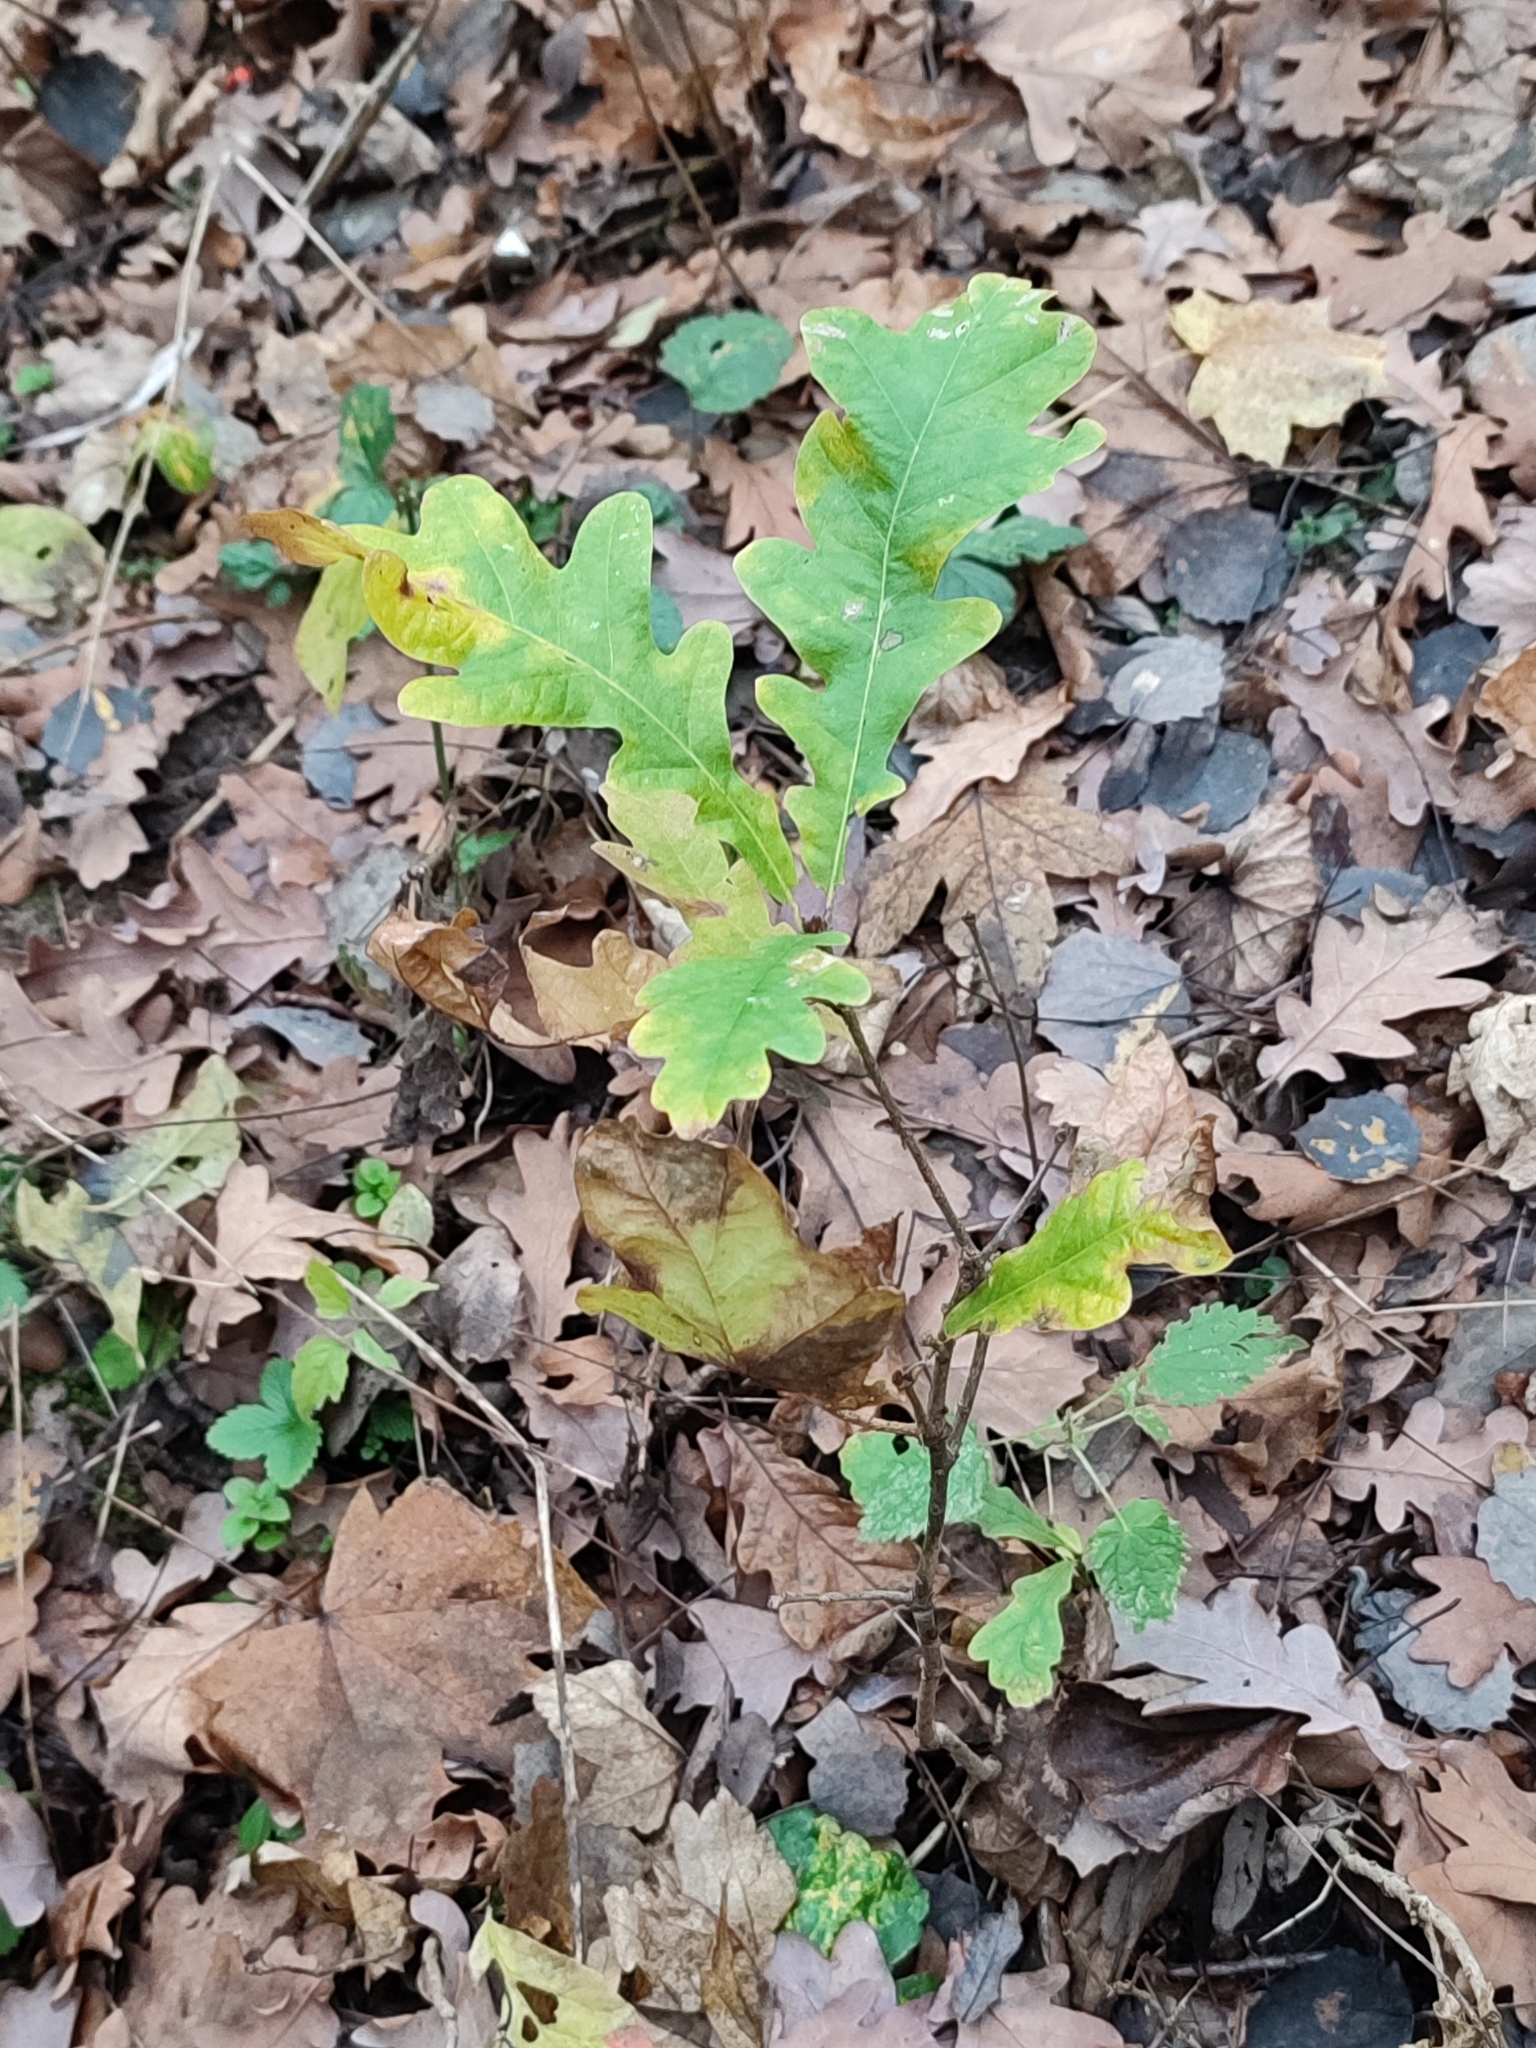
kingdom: Plantae
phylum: Tracheophyta
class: Magnoliopsida
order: Fagales
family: Fagaceae
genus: Quercus
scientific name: Quercus robur
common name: Pedunculate oak
